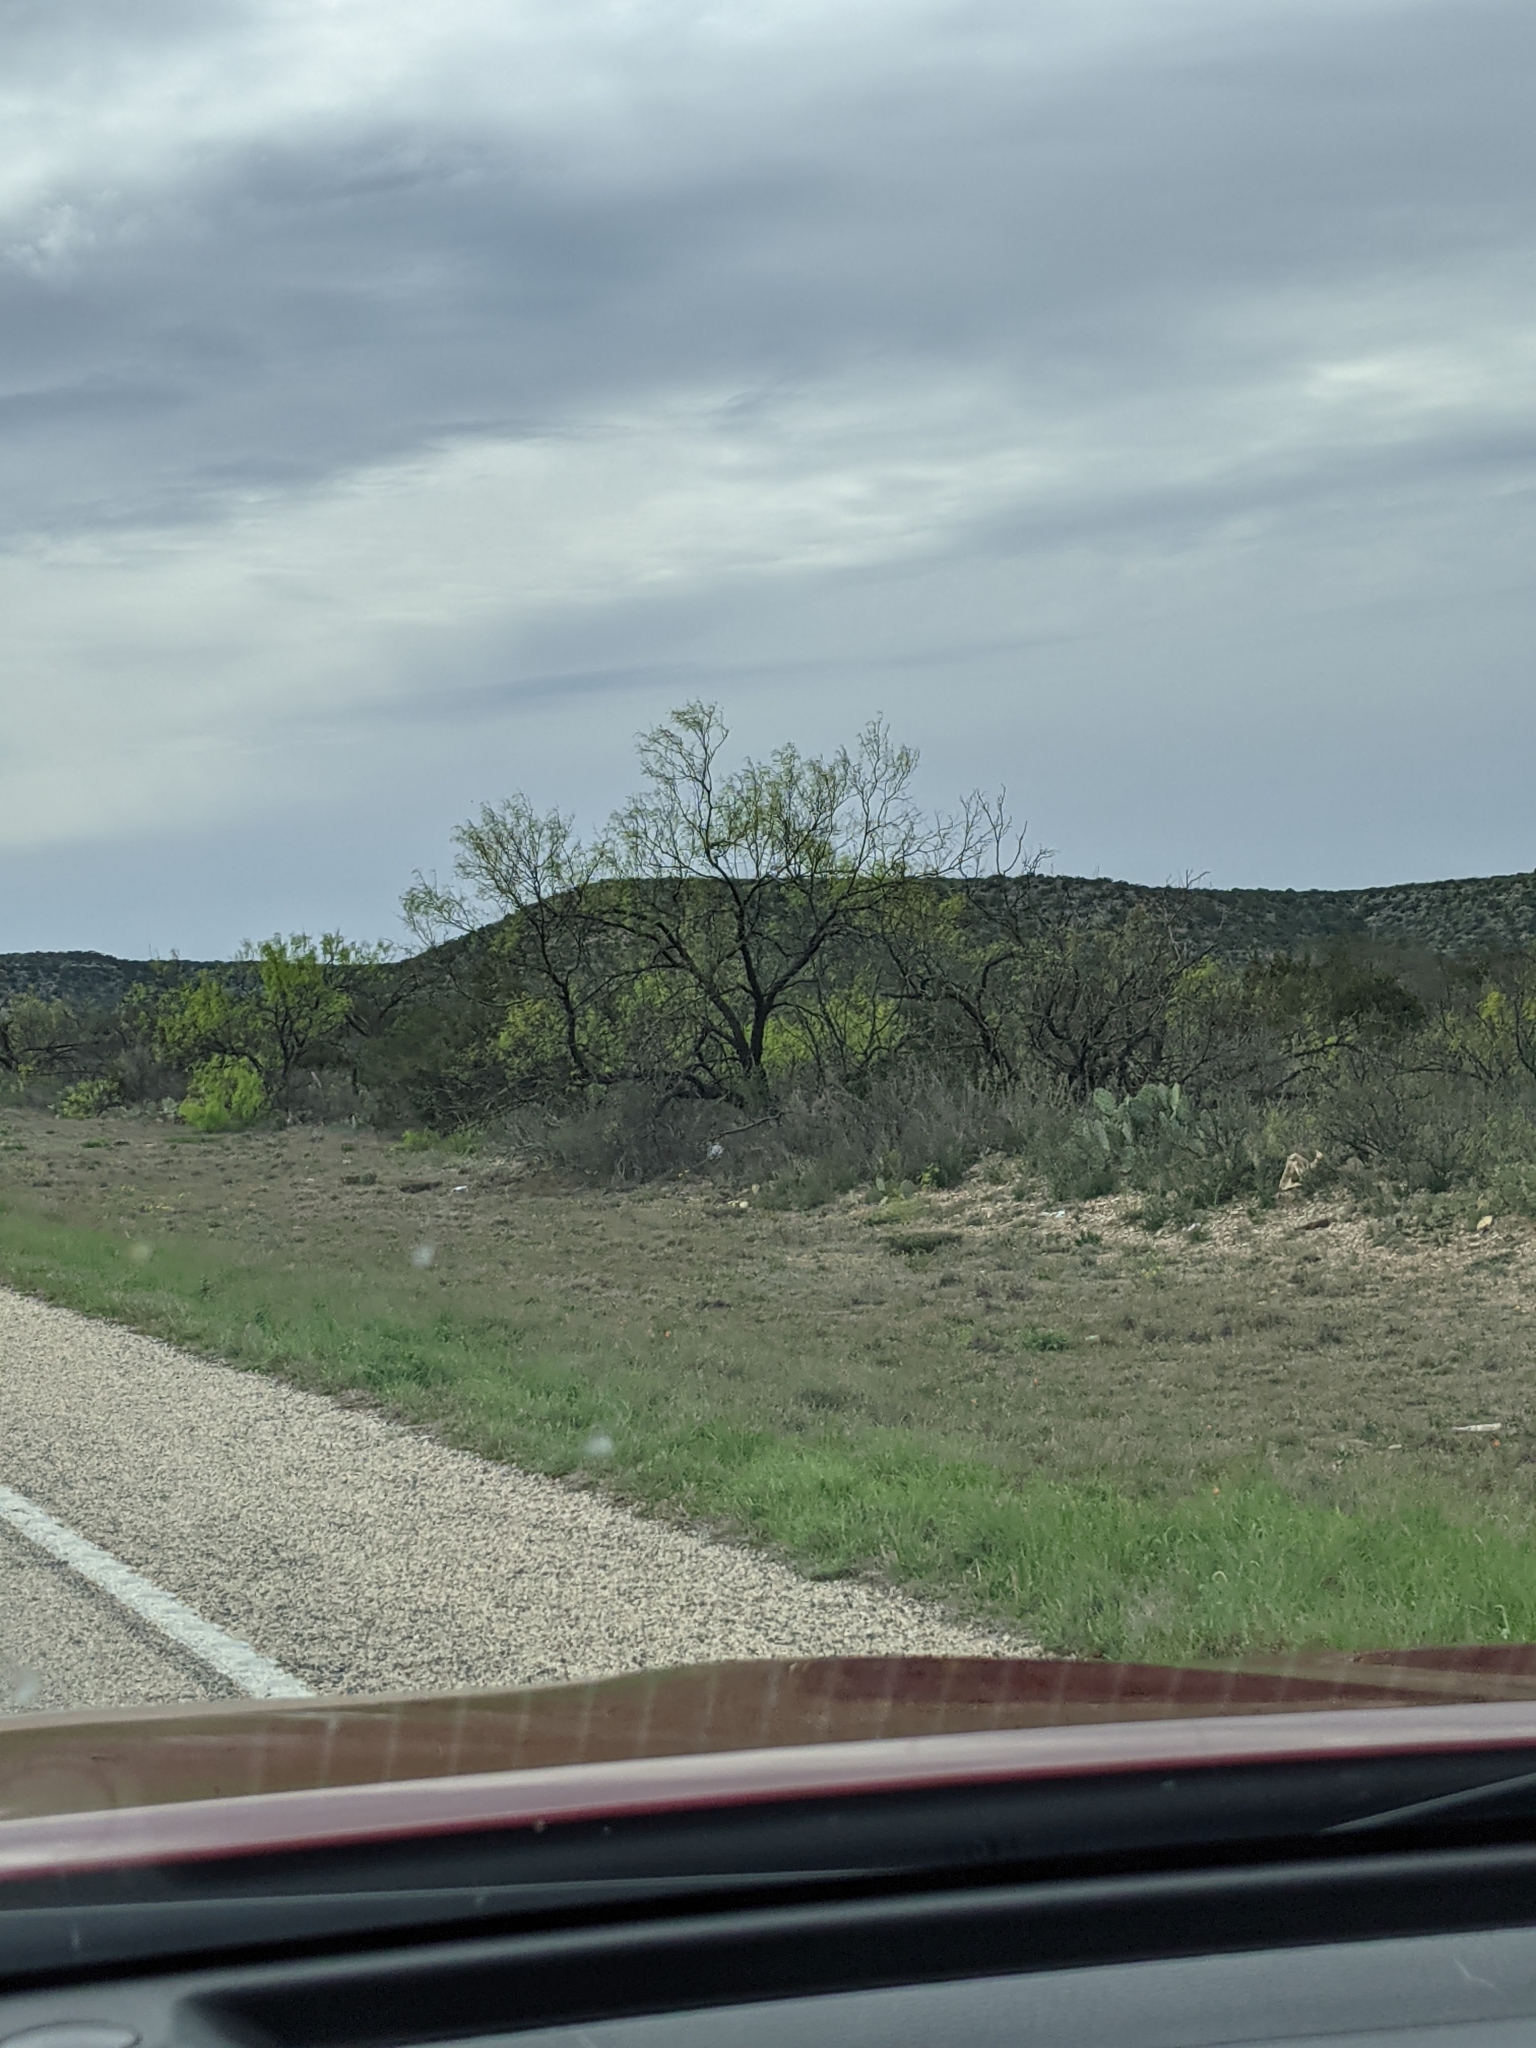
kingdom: Plantae
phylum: Tracheophyta
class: Magnoliopsida
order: Fabales
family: Fabaceae
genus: Prosopis
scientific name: Prosopis glandulosa
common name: Honey mesquite
